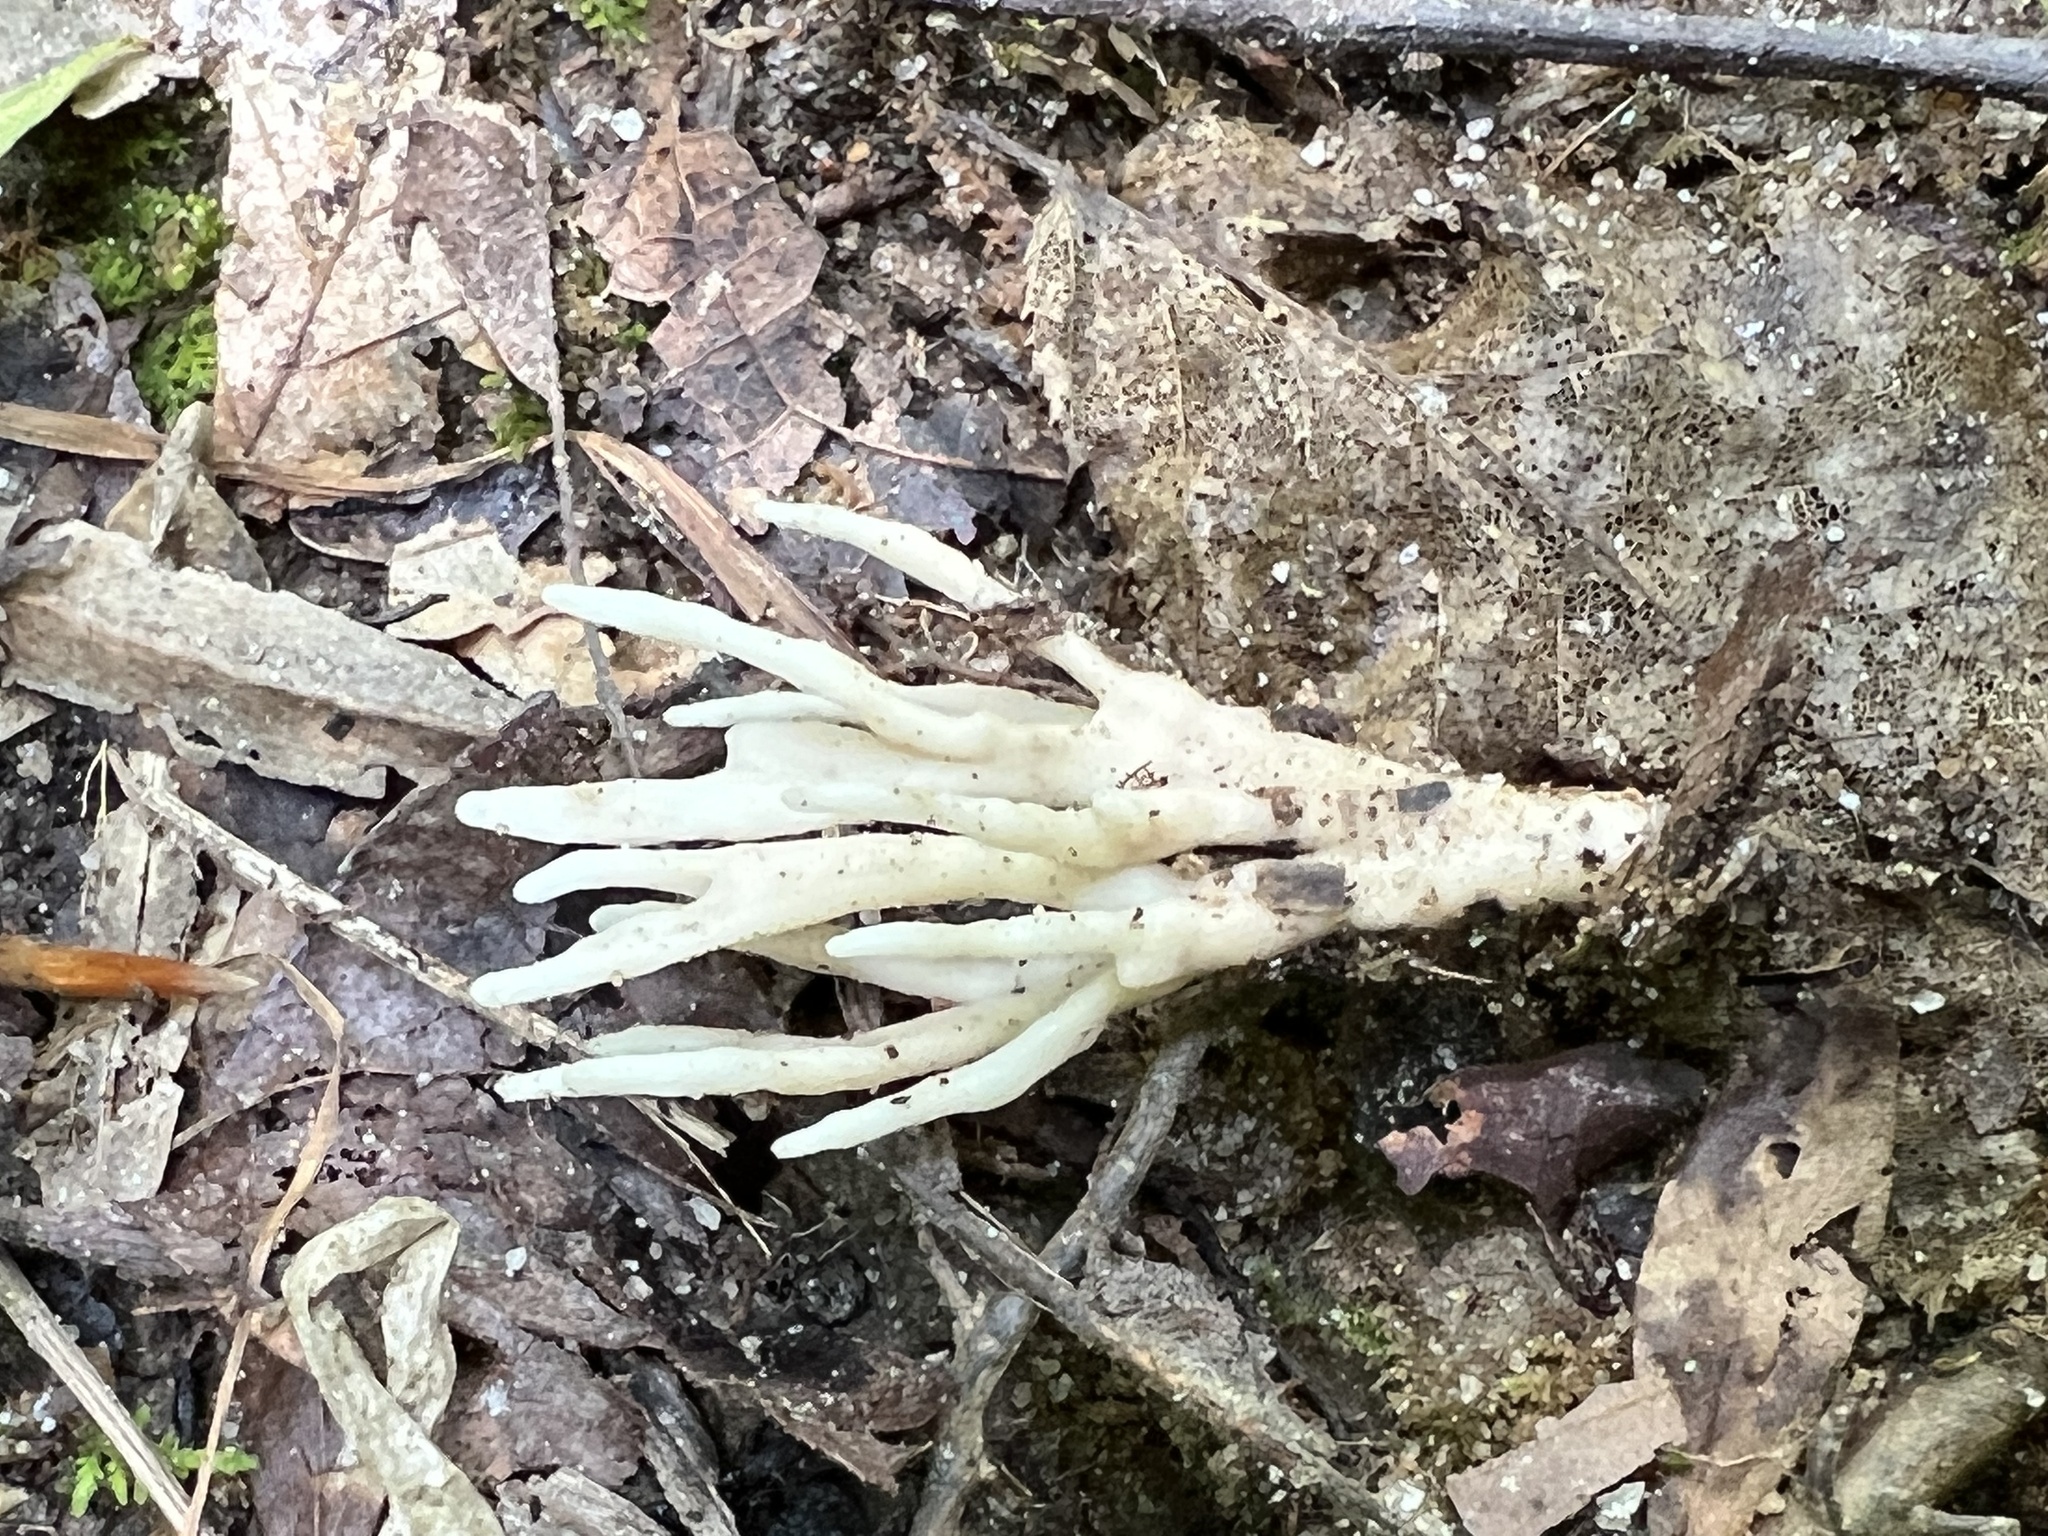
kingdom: Fungi
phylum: Basidiomycota
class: Agaricomycetes
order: Tremellodendropsidales
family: Tremellodendropsidaceae
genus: Tremellodendropsis
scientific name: Tremellodendropsis tuberosa
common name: Ashen coral
